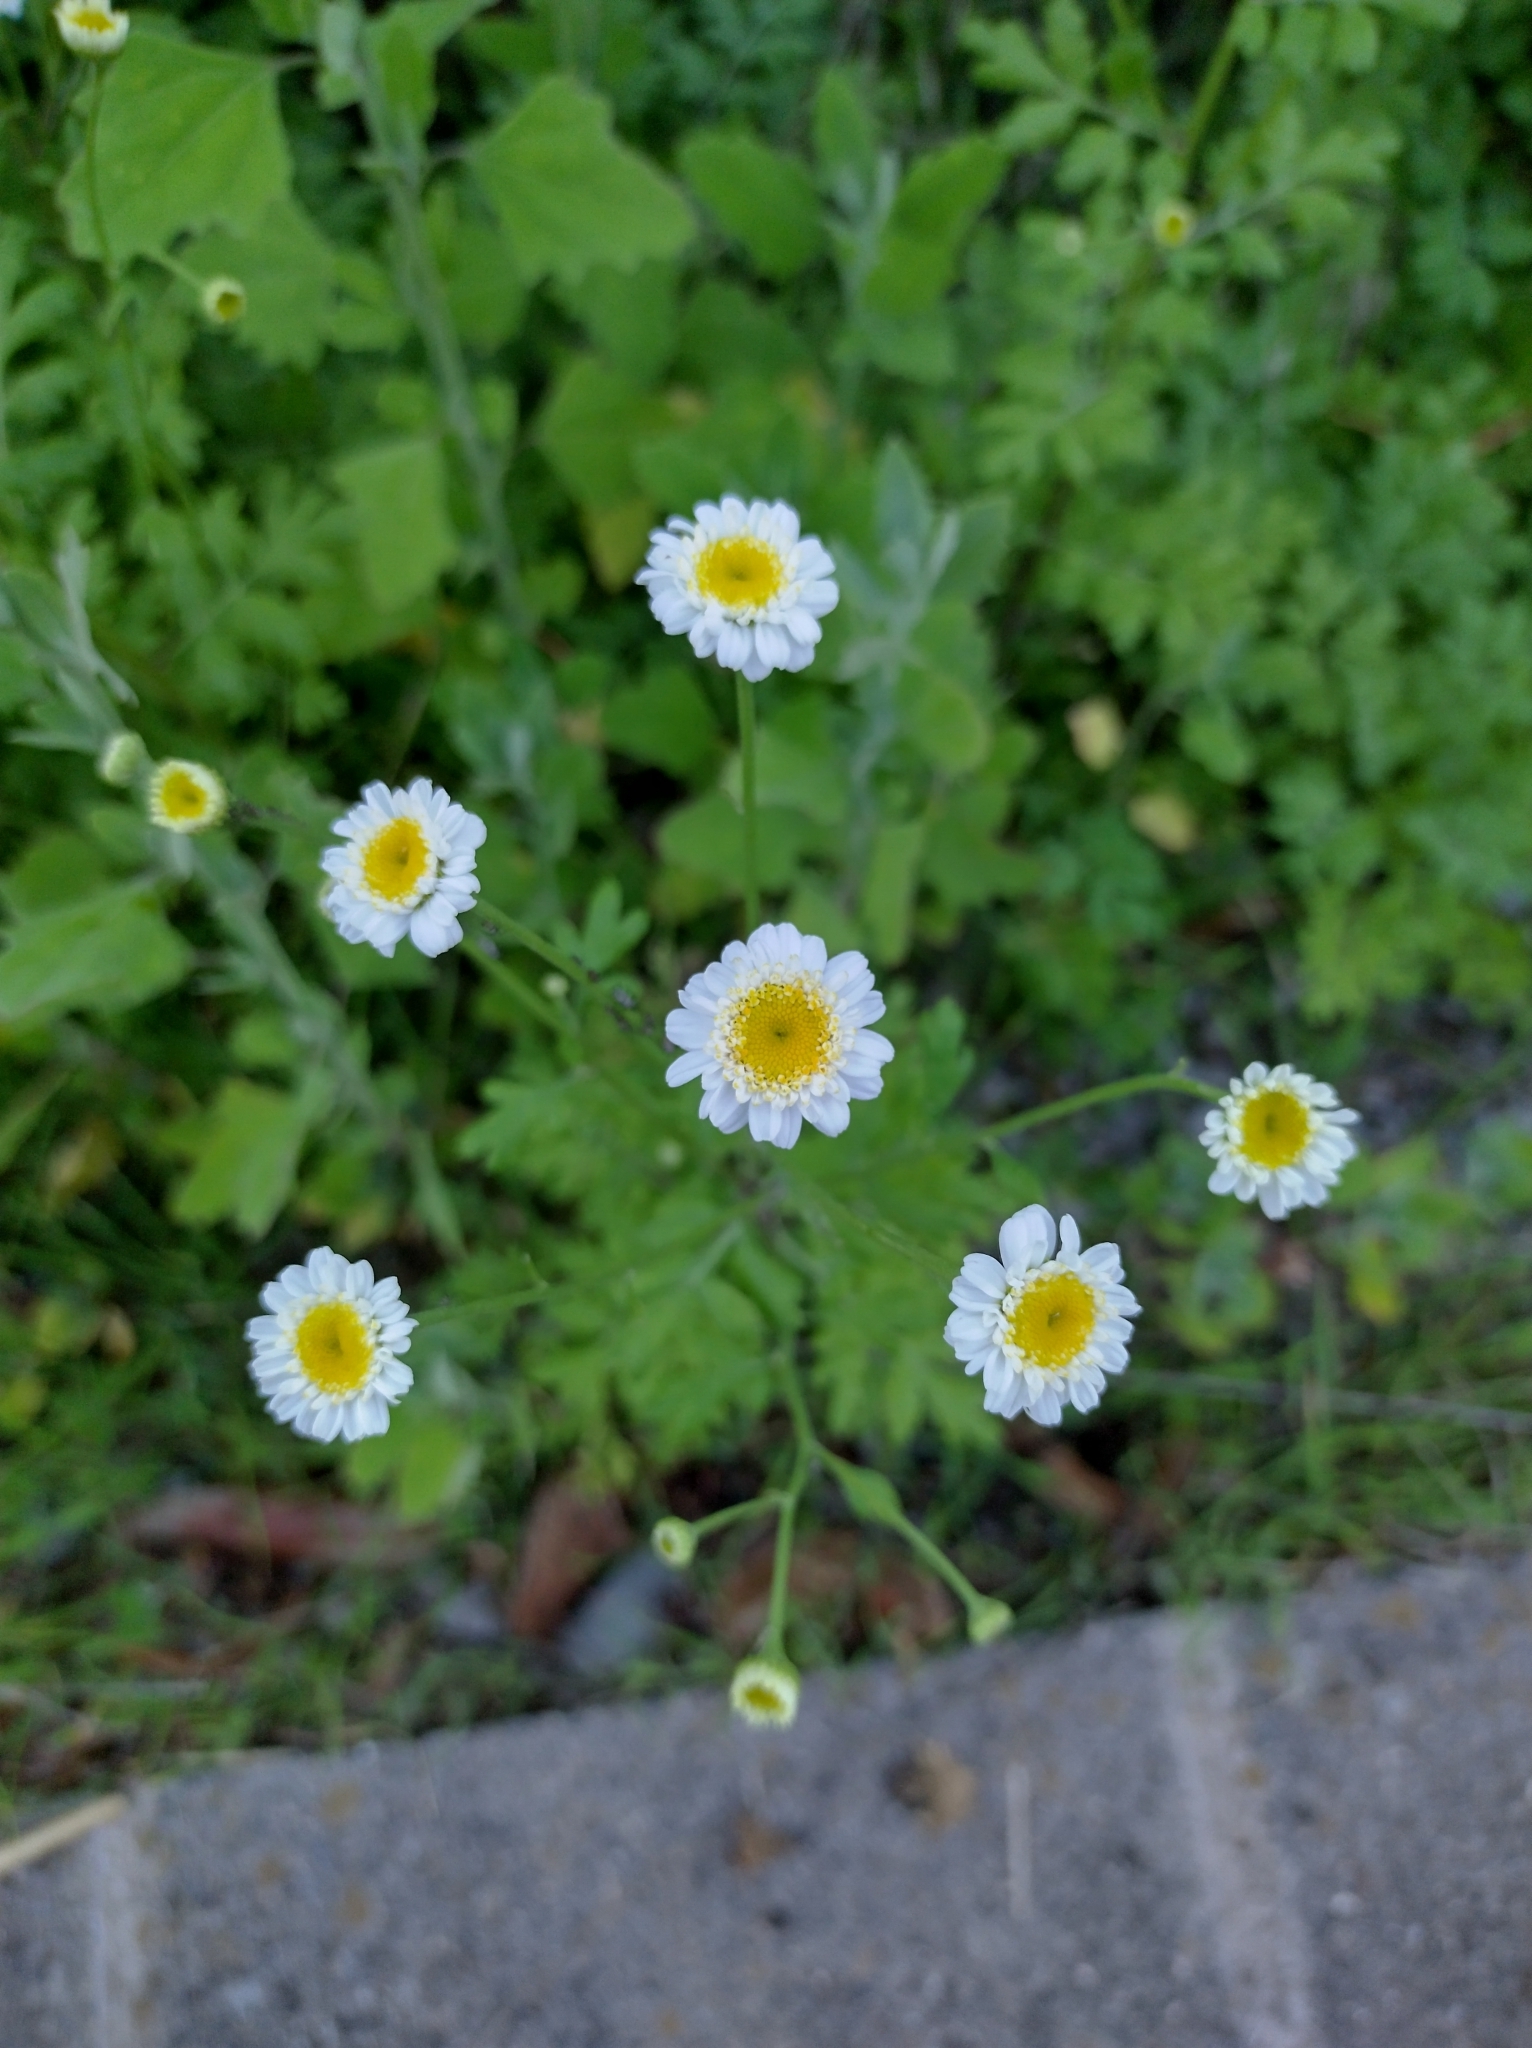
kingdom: Plantae
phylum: Tracheophyta
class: Magnoliopsida
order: Asterales
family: Asteraceae
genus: Tanacetum
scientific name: Tanacetum parthenium
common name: Feverfew
